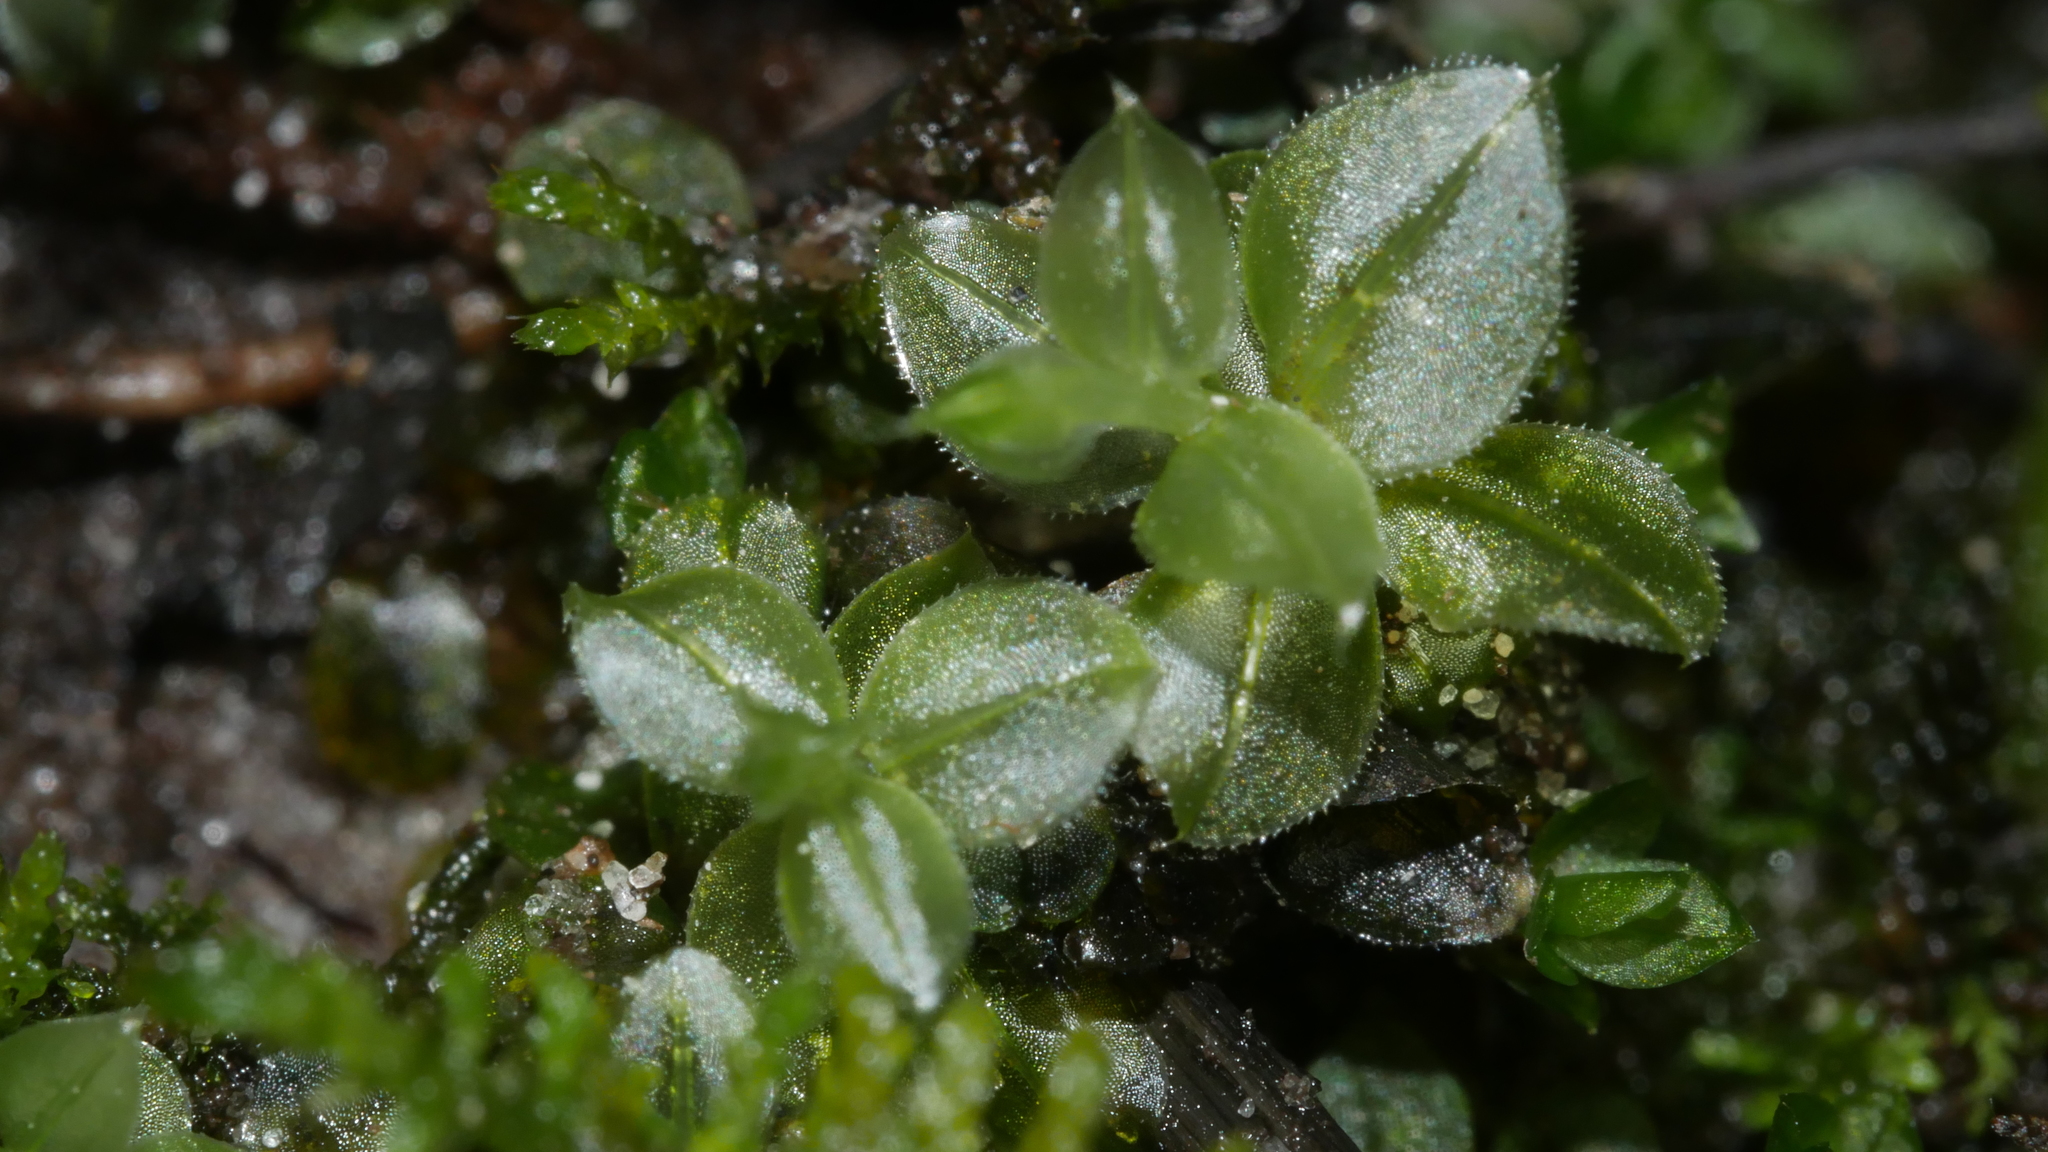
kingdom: Plantae
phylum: Bryophyta
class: Bryopsida
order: Bryales
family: Mniaceae
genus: Plagiomnium
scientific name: Plagiomnium
